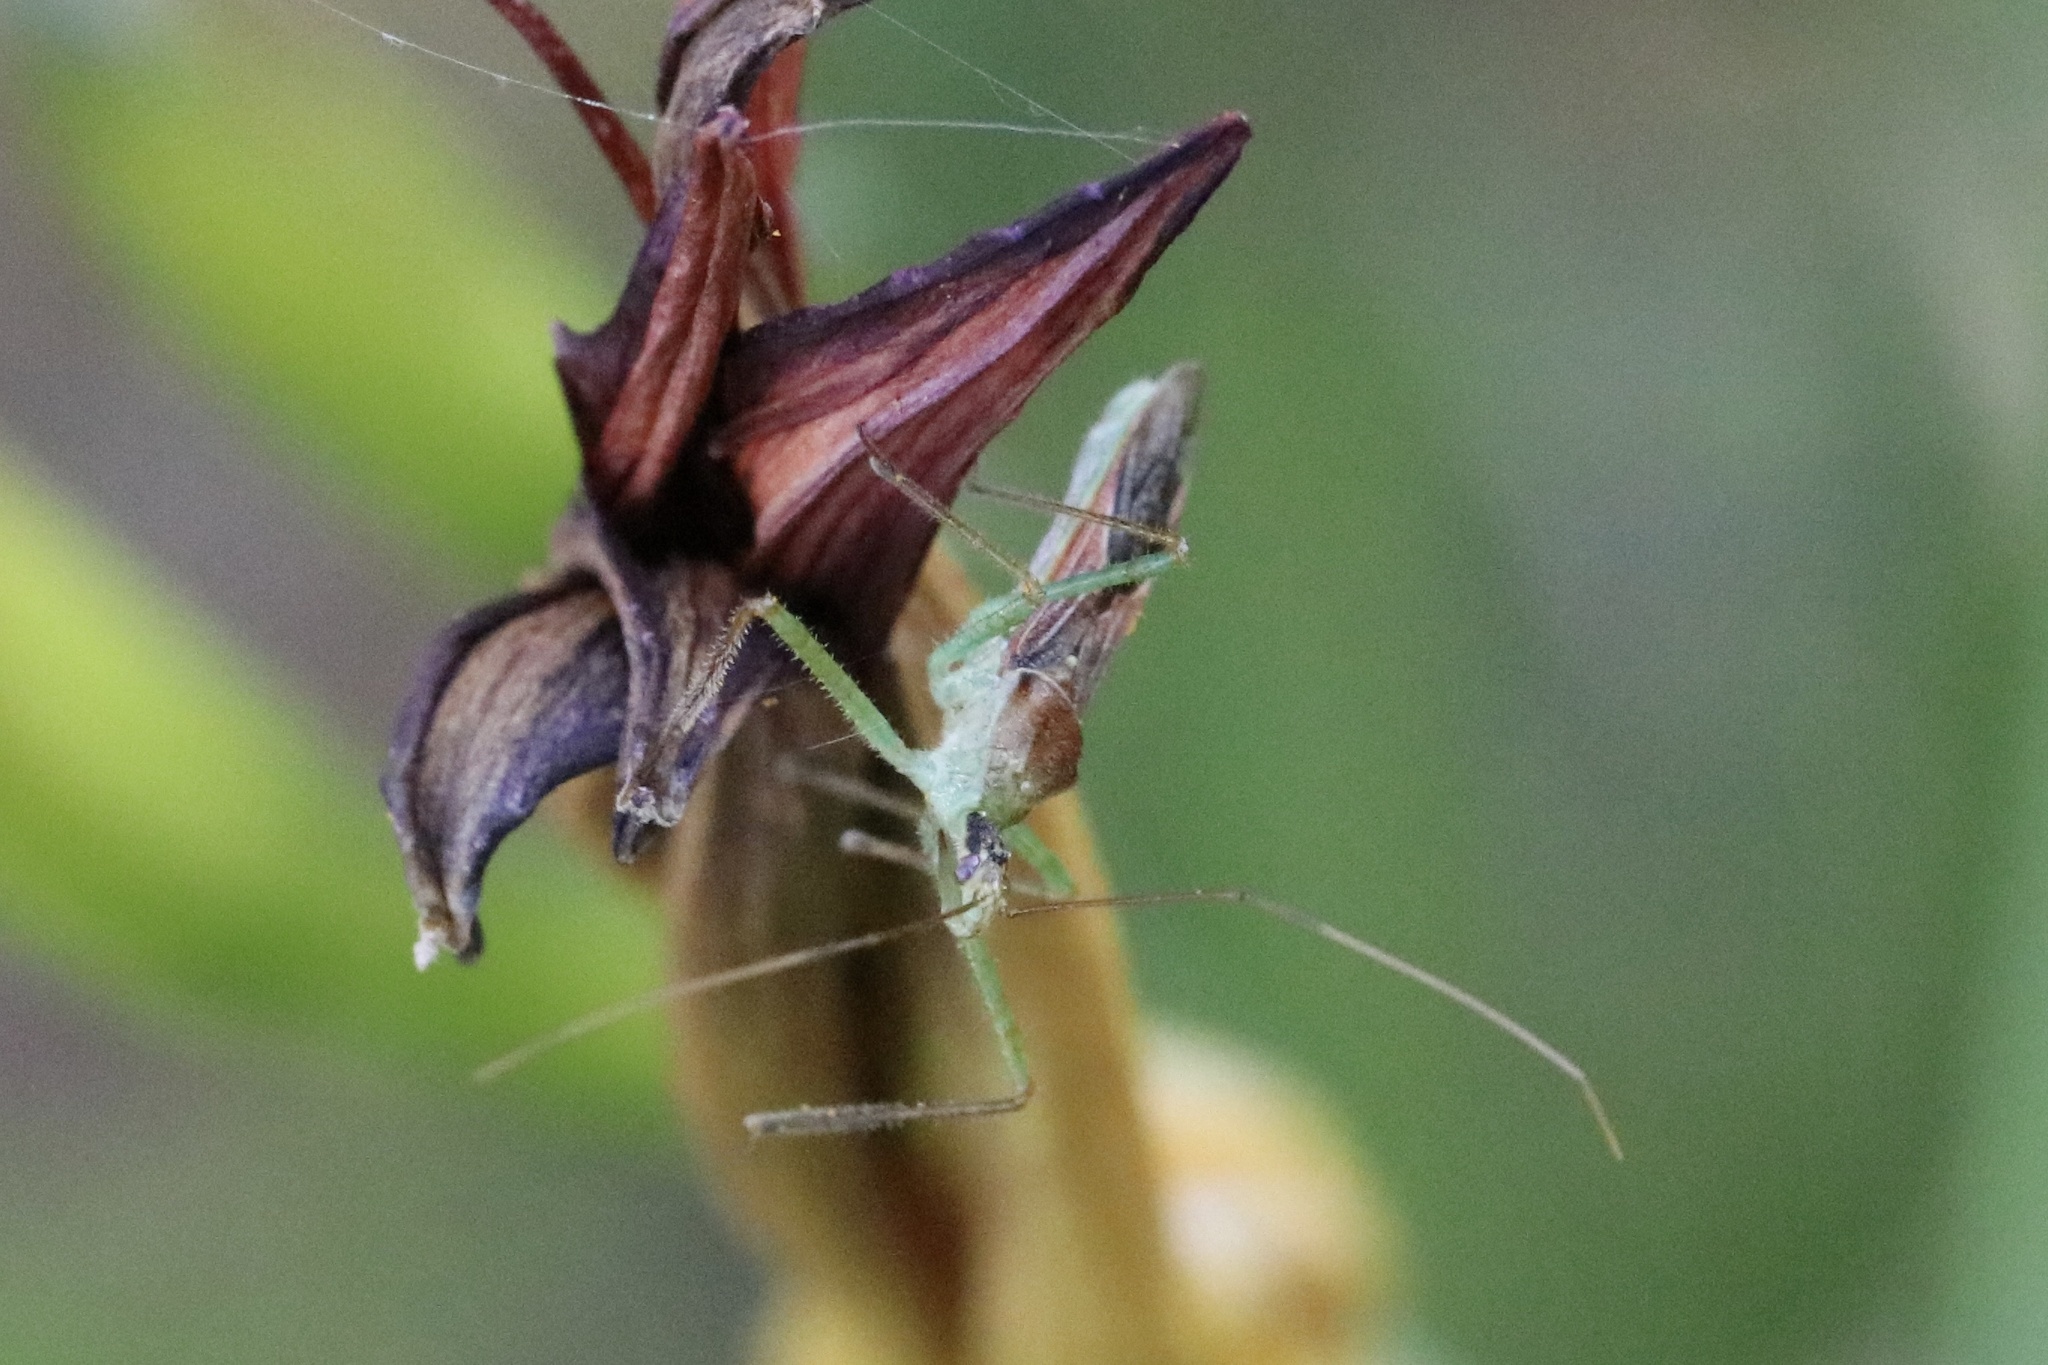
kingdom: Animalia
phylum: Arthropoda
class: Insecta
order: Hemiptera
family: Reduviidae
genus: Zelus
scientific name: Zelus renardii
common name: Assassin bug
